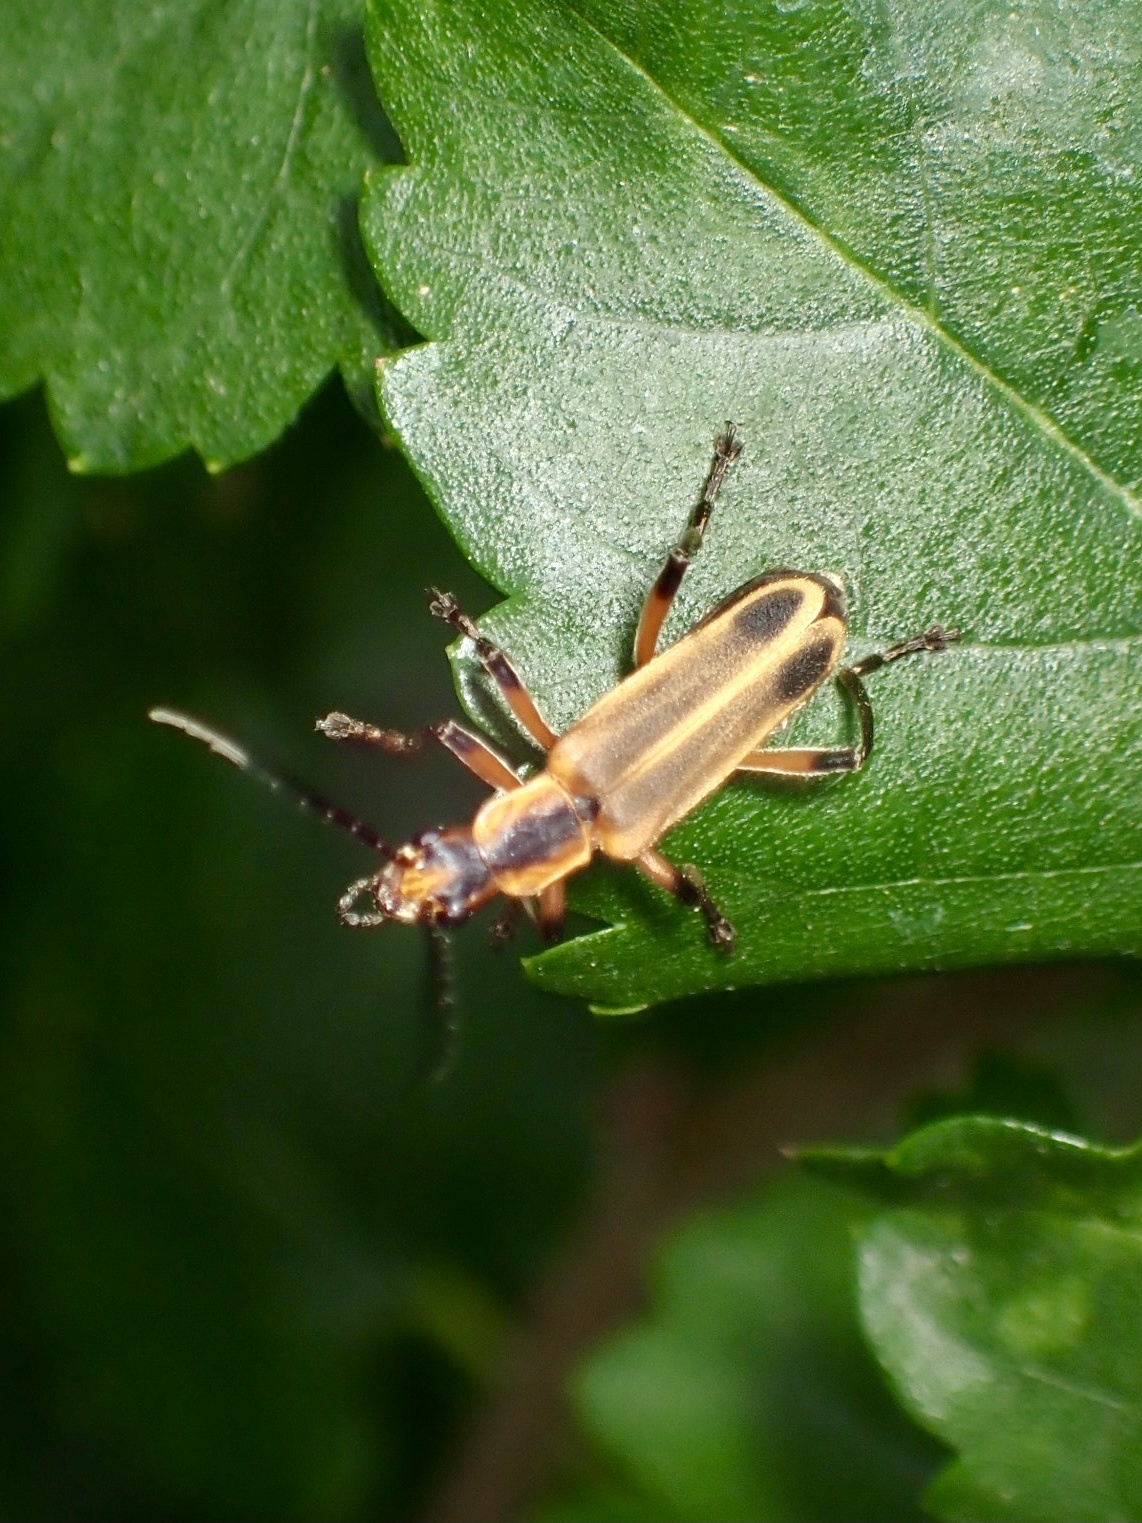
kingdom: Animalia
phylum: Arthropoda
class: Insecta
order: Coleoptera
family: Cantharidae
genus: Chauliognathus
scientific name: Chauliognathus marginatus
